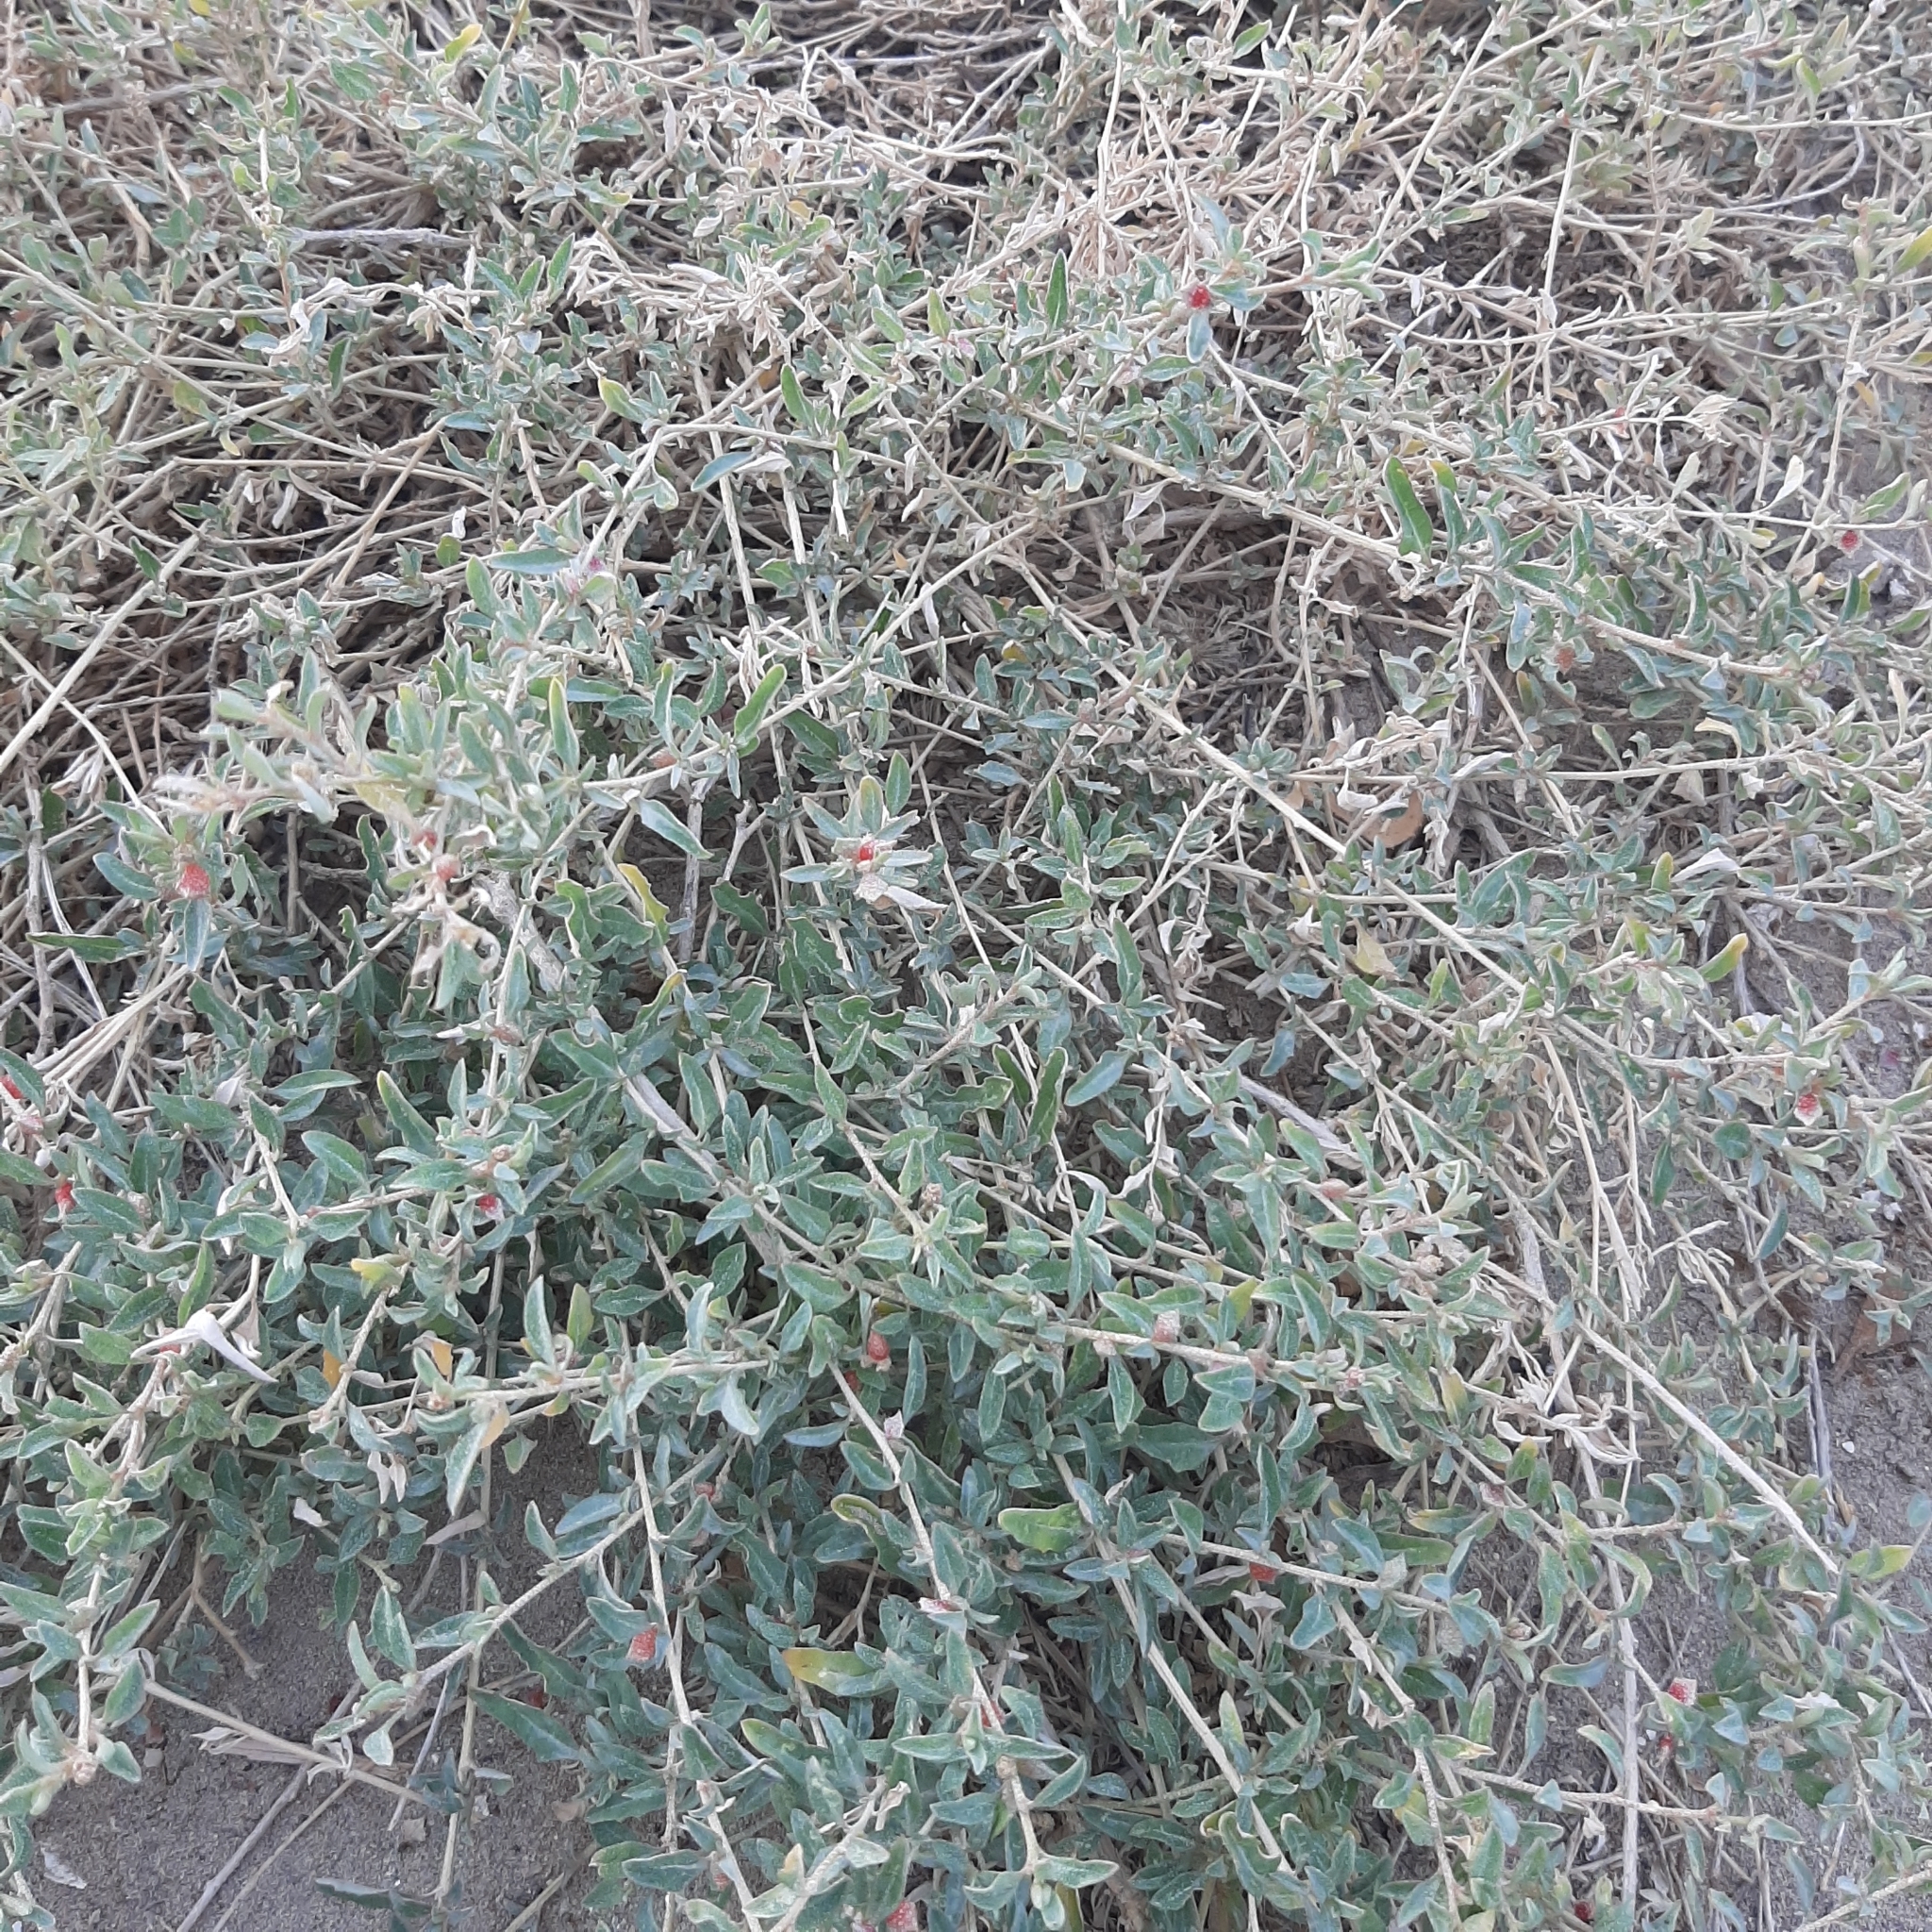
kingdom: Plantae
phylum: Tracheophyta
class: Magnoliopsida
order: Caryophyllales
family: Amaranthaceae
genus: Atriplex
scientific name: Atriplex semibaccata
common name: Australian saltbush
